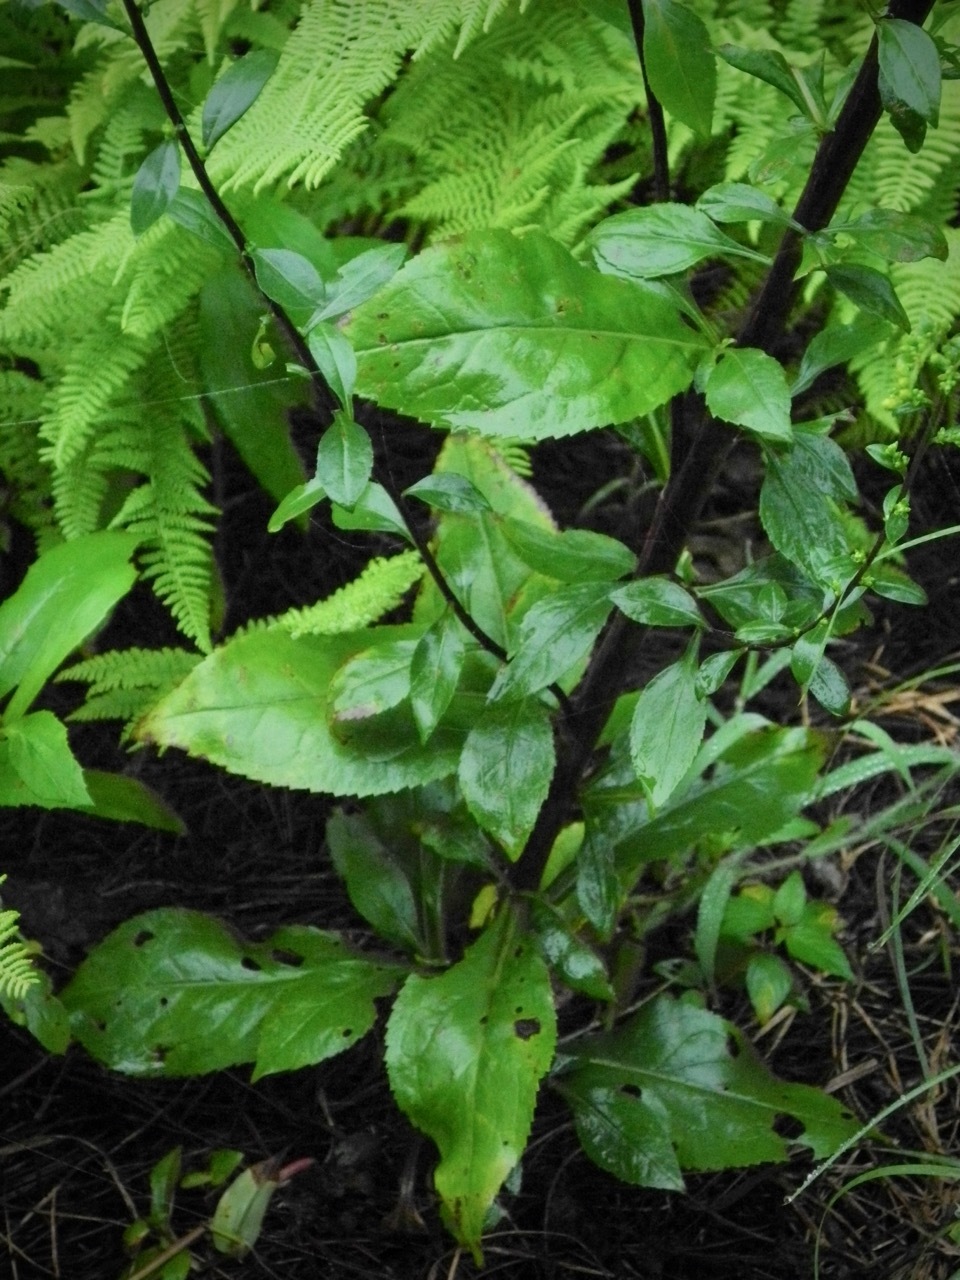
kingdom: Plantae
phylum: Tracheophyta
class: Magnoliopsida
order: Asterales
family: Asteraceae
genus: Solidago
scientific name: Solidago patula
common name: Rough-leaf goldenrod
